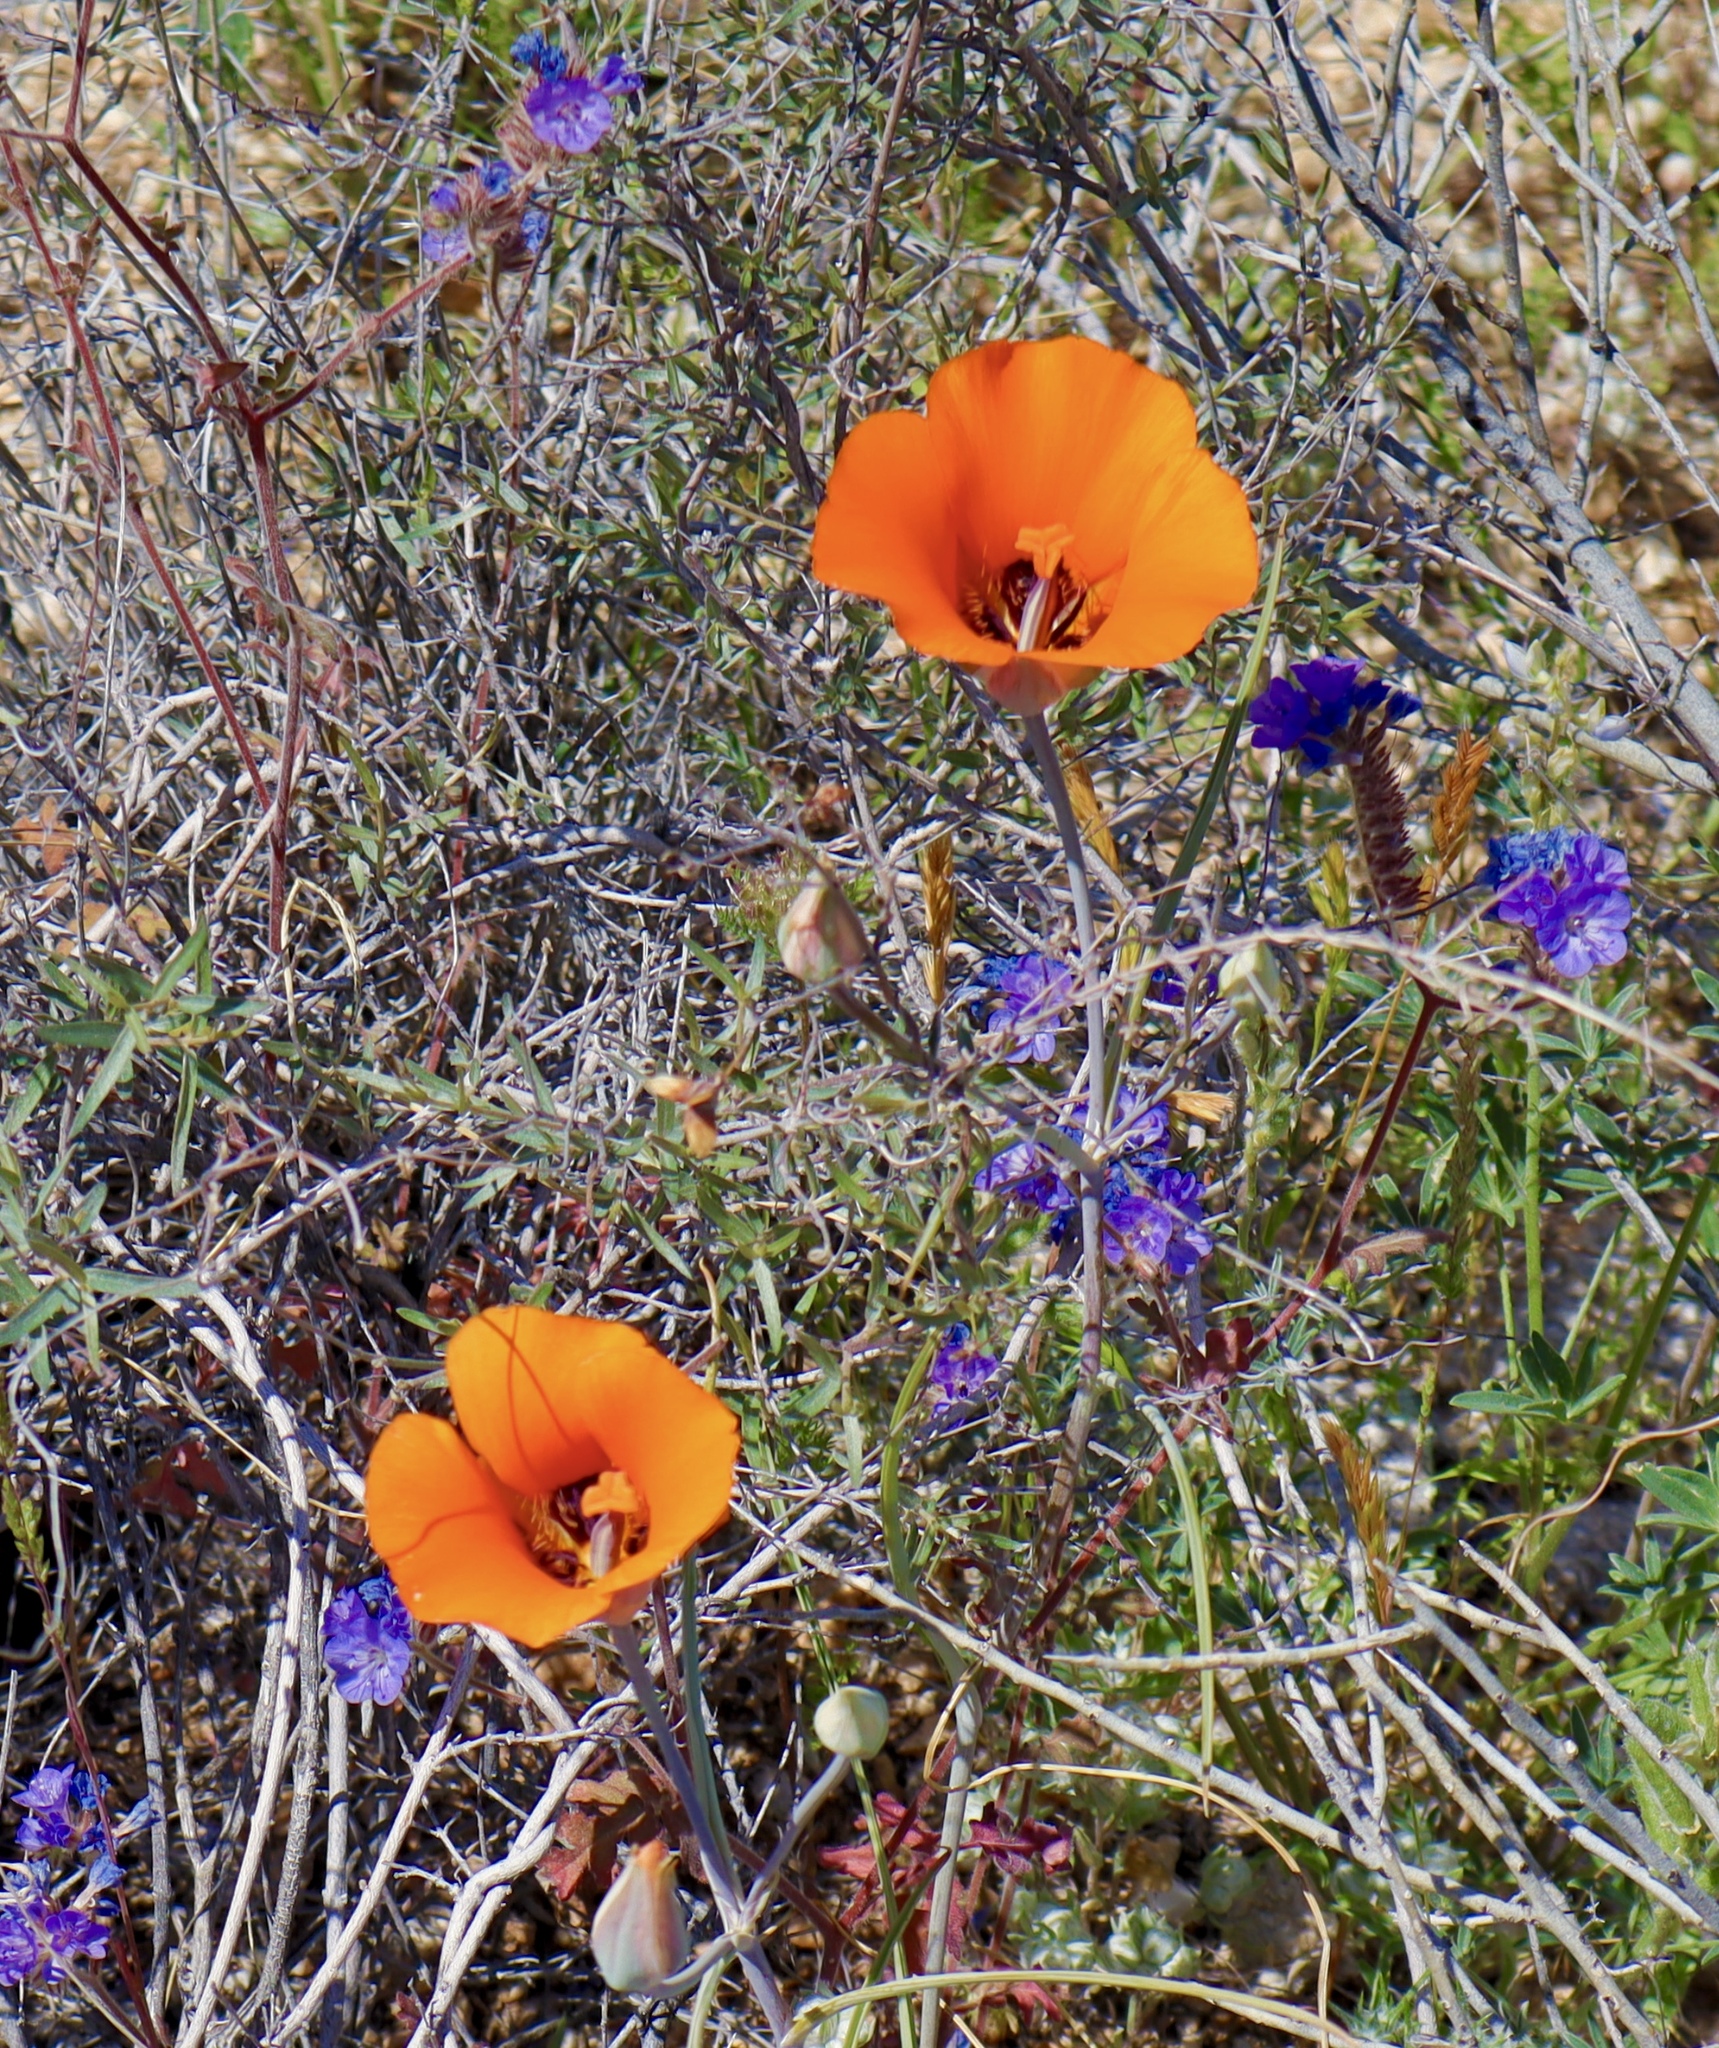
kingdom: Plantae
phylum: Tracheophyta
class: Liliopsida
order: Liliales
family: Liliaceae
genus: Calochortus
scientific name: Calochortus kennedyi
